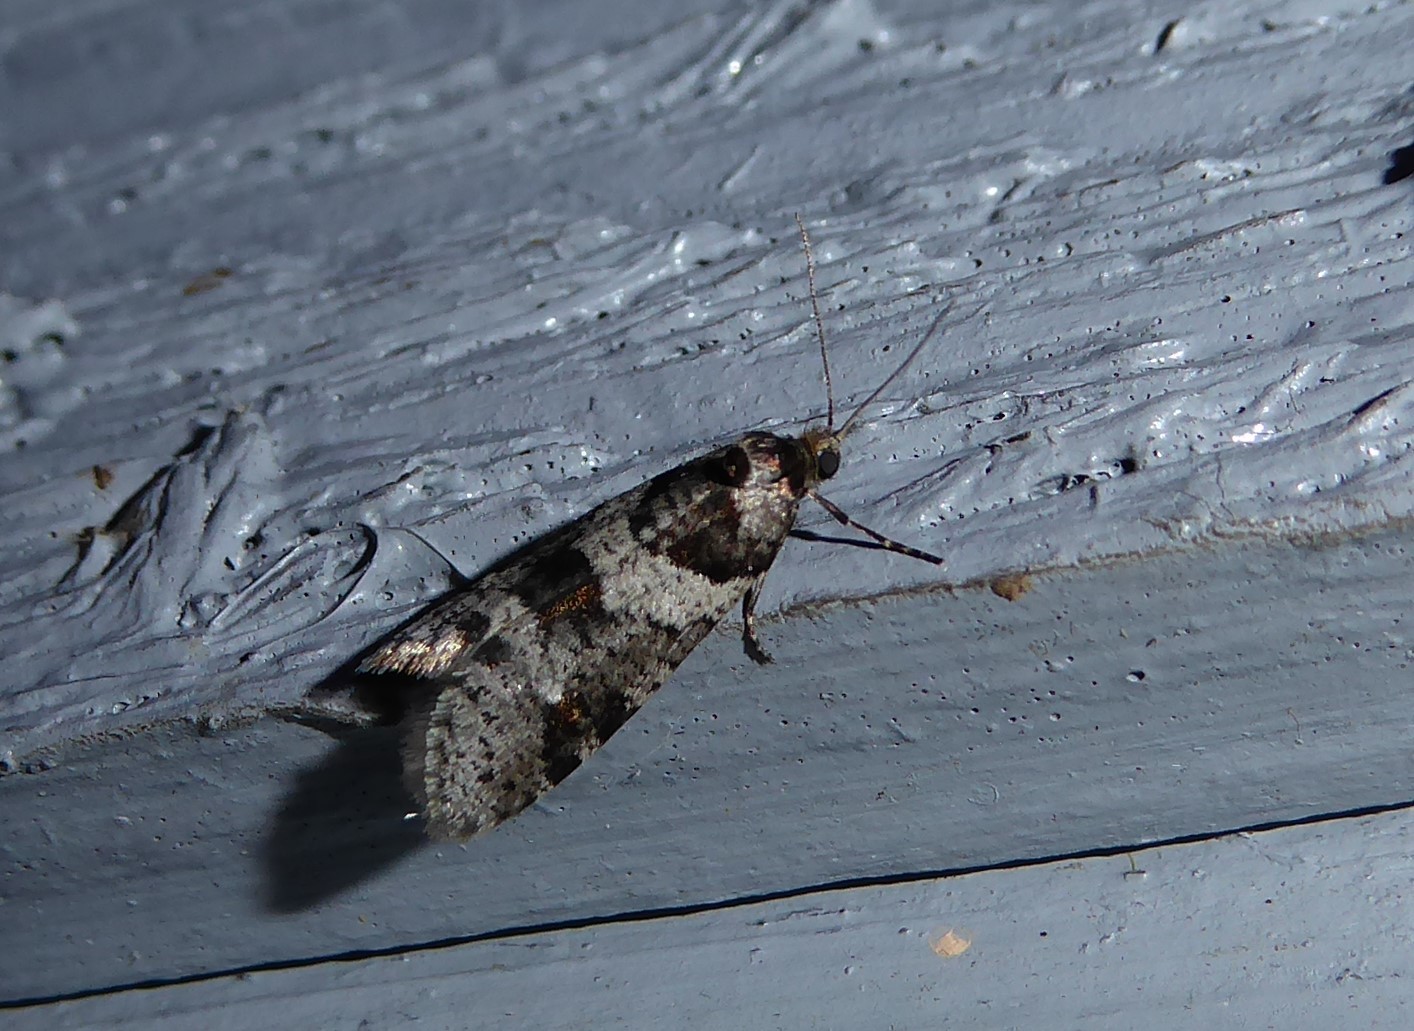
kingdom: Animalia
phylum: Arthropoda
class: Insecta
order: Lepidoptera
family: Psychidae
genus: Lepidoscia
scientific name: Lepidoscia heliochares
